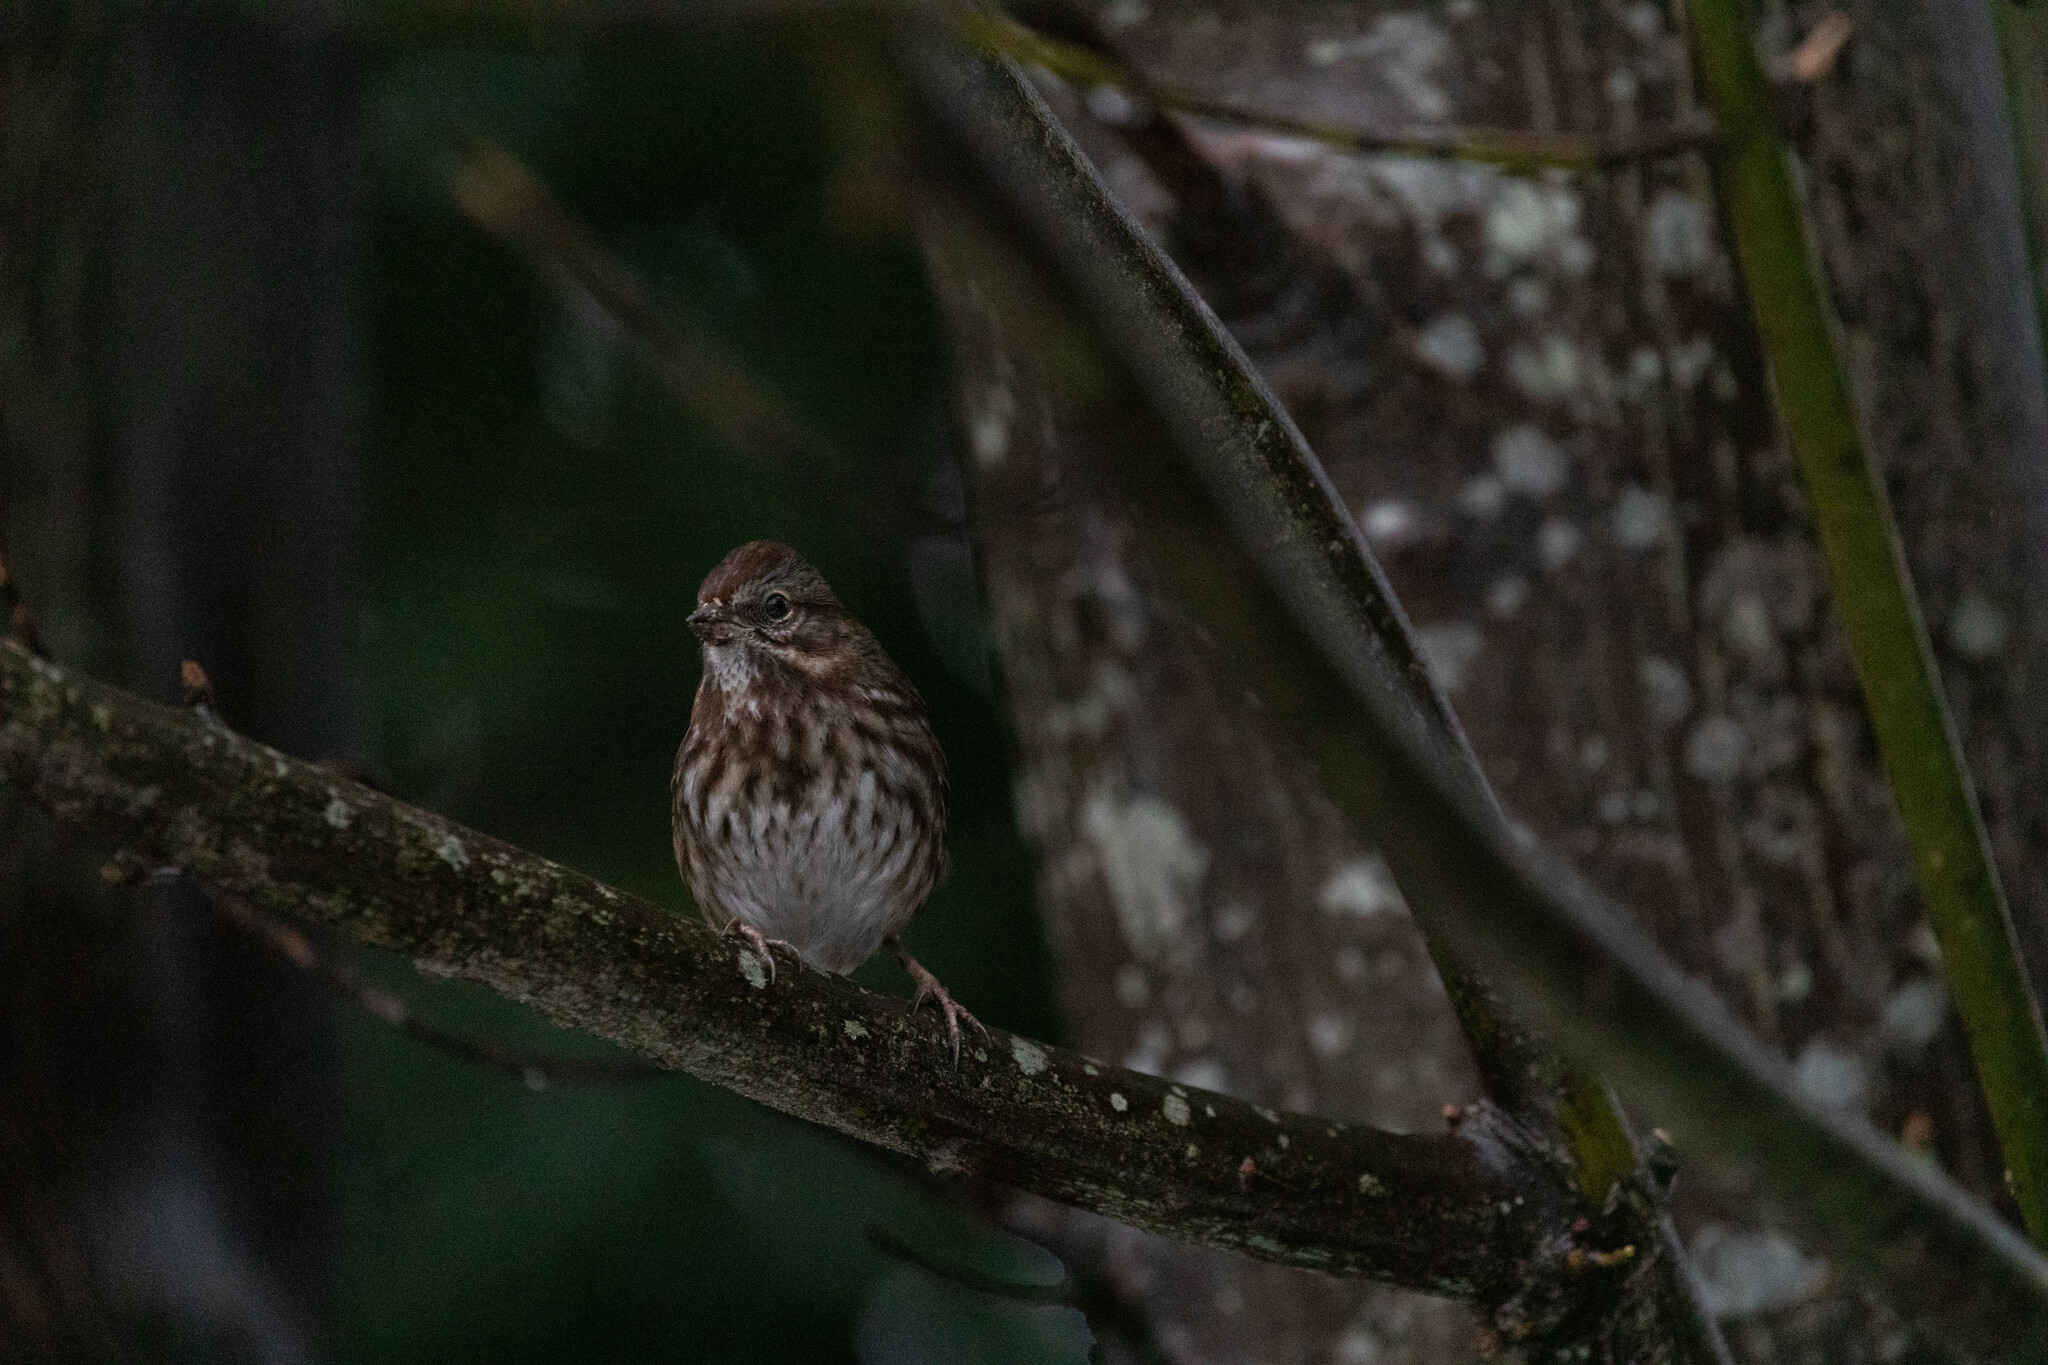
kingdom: Animalia
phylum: Chordata
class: Aves
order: Passeriformes
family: Passerellidae
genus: Melospiza
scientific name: Melospiza melodia
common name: Song sparrow
